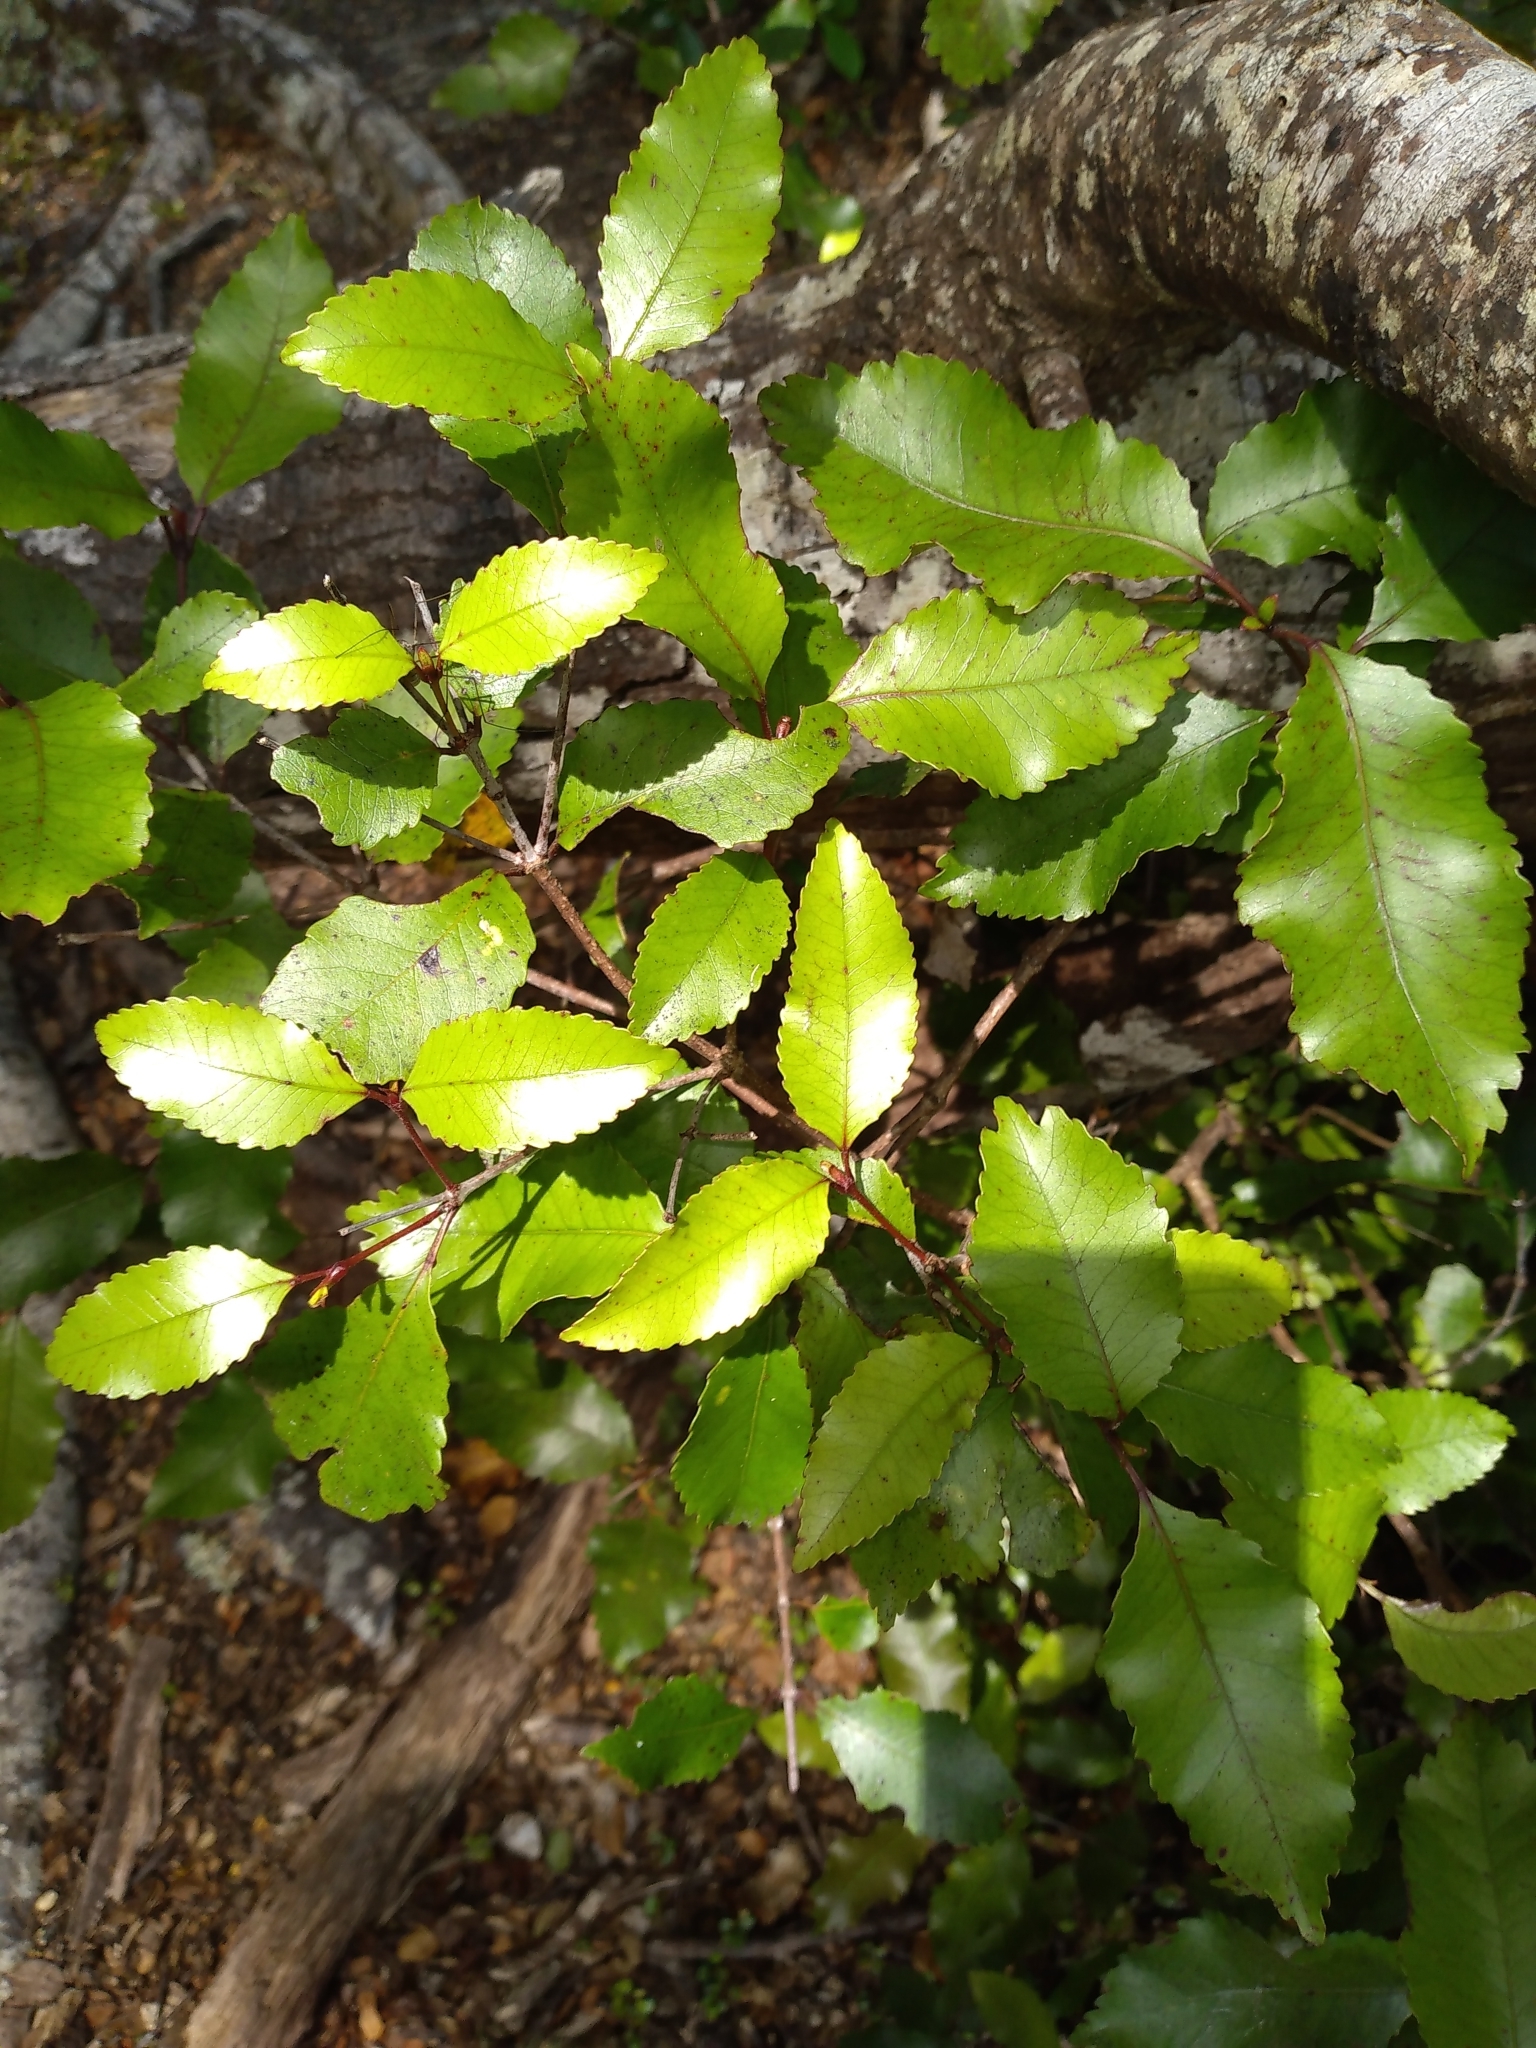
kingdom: Plantae
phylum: Tracheophyta
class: Magnoliopsida
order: Oxalidales
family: Cunoniaceae
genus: Pterophylla
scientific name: Pterophylla racemosa
